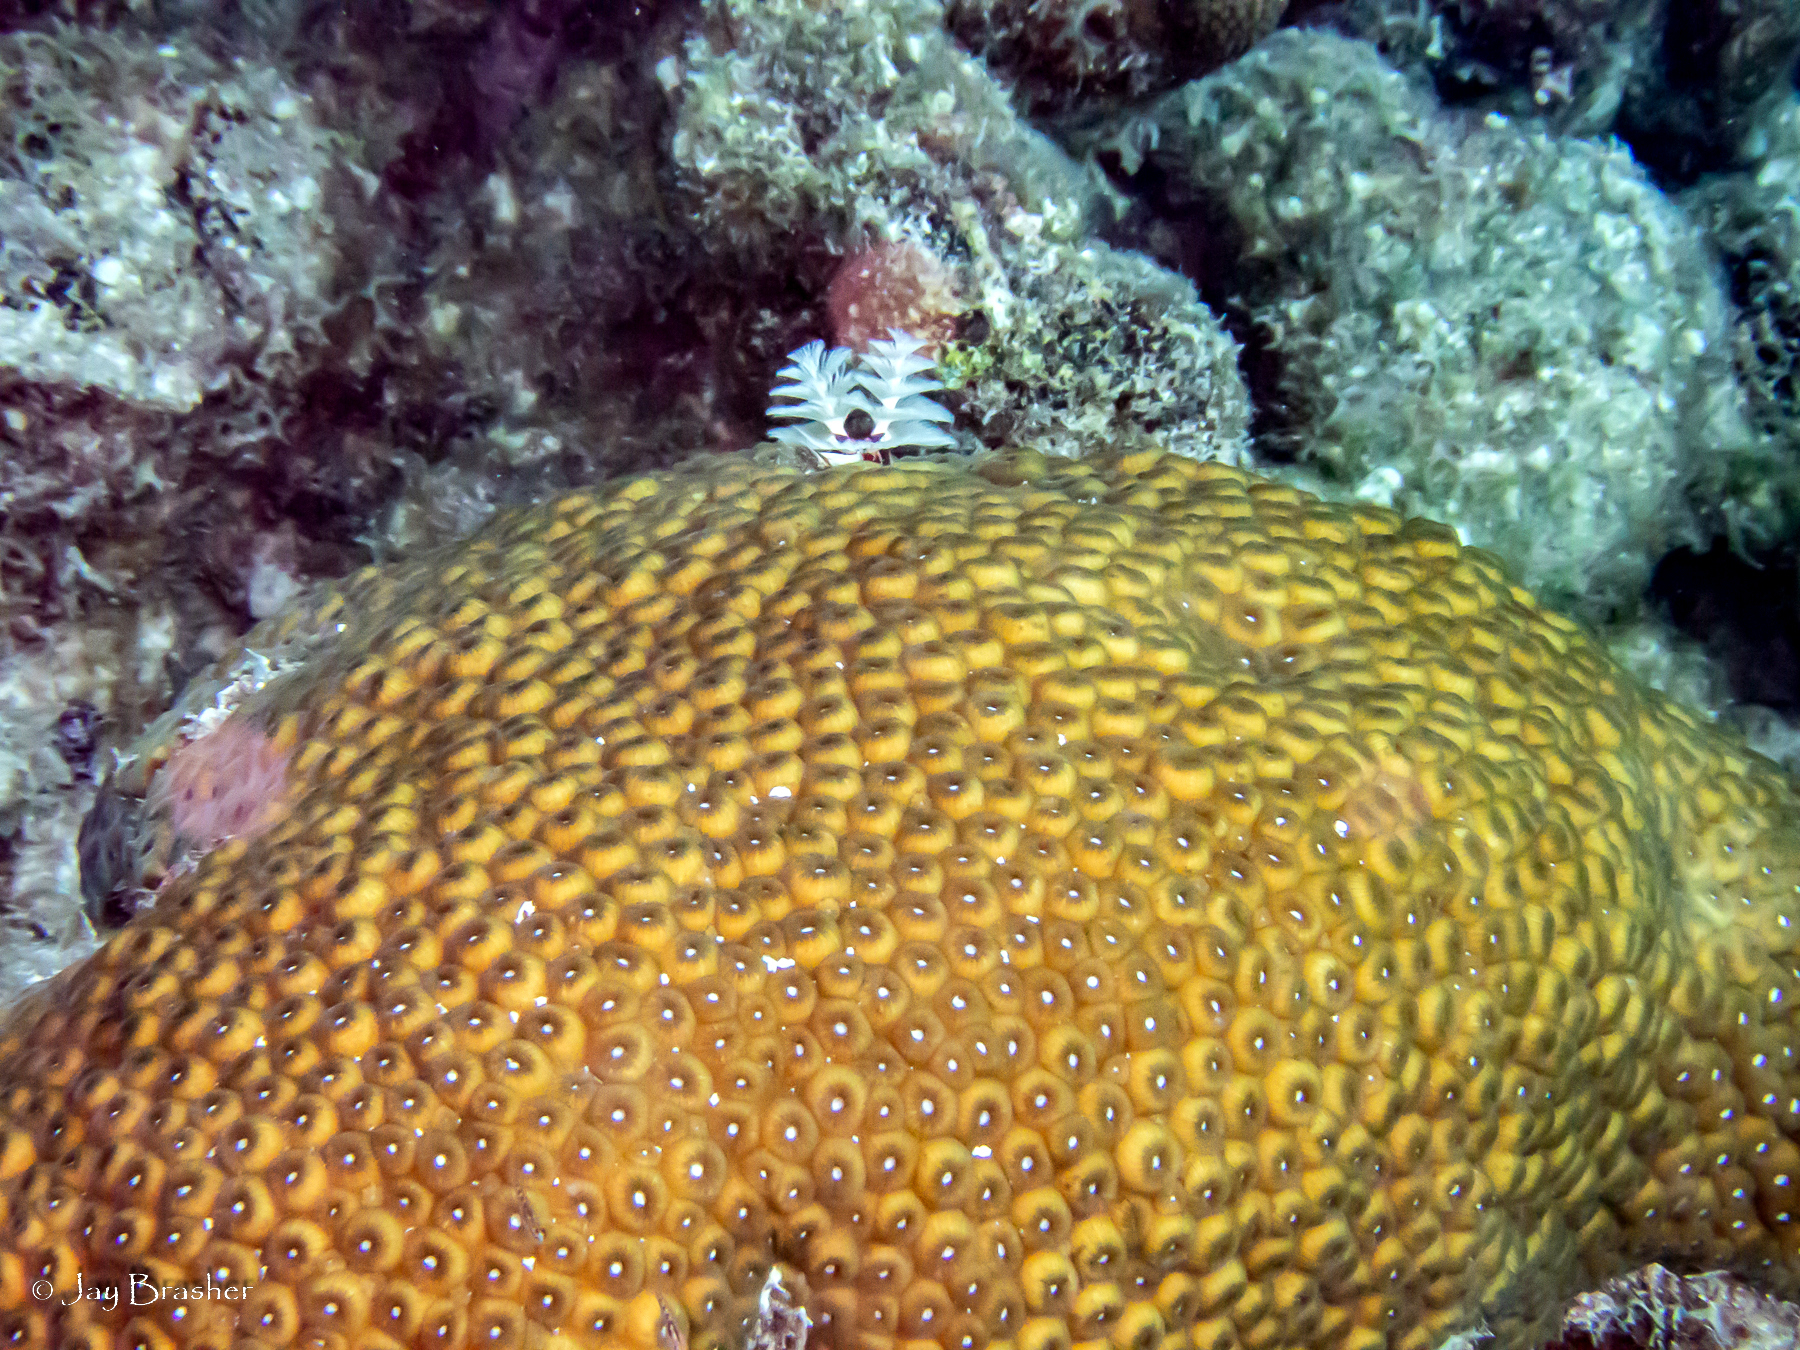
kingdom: Animalia
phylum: Annelida
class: Polychaeta
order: Sabellida
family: Serpulidae
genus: Spirobranchus
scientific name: Spirobranchus giganteus
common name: Christmas tree worm
